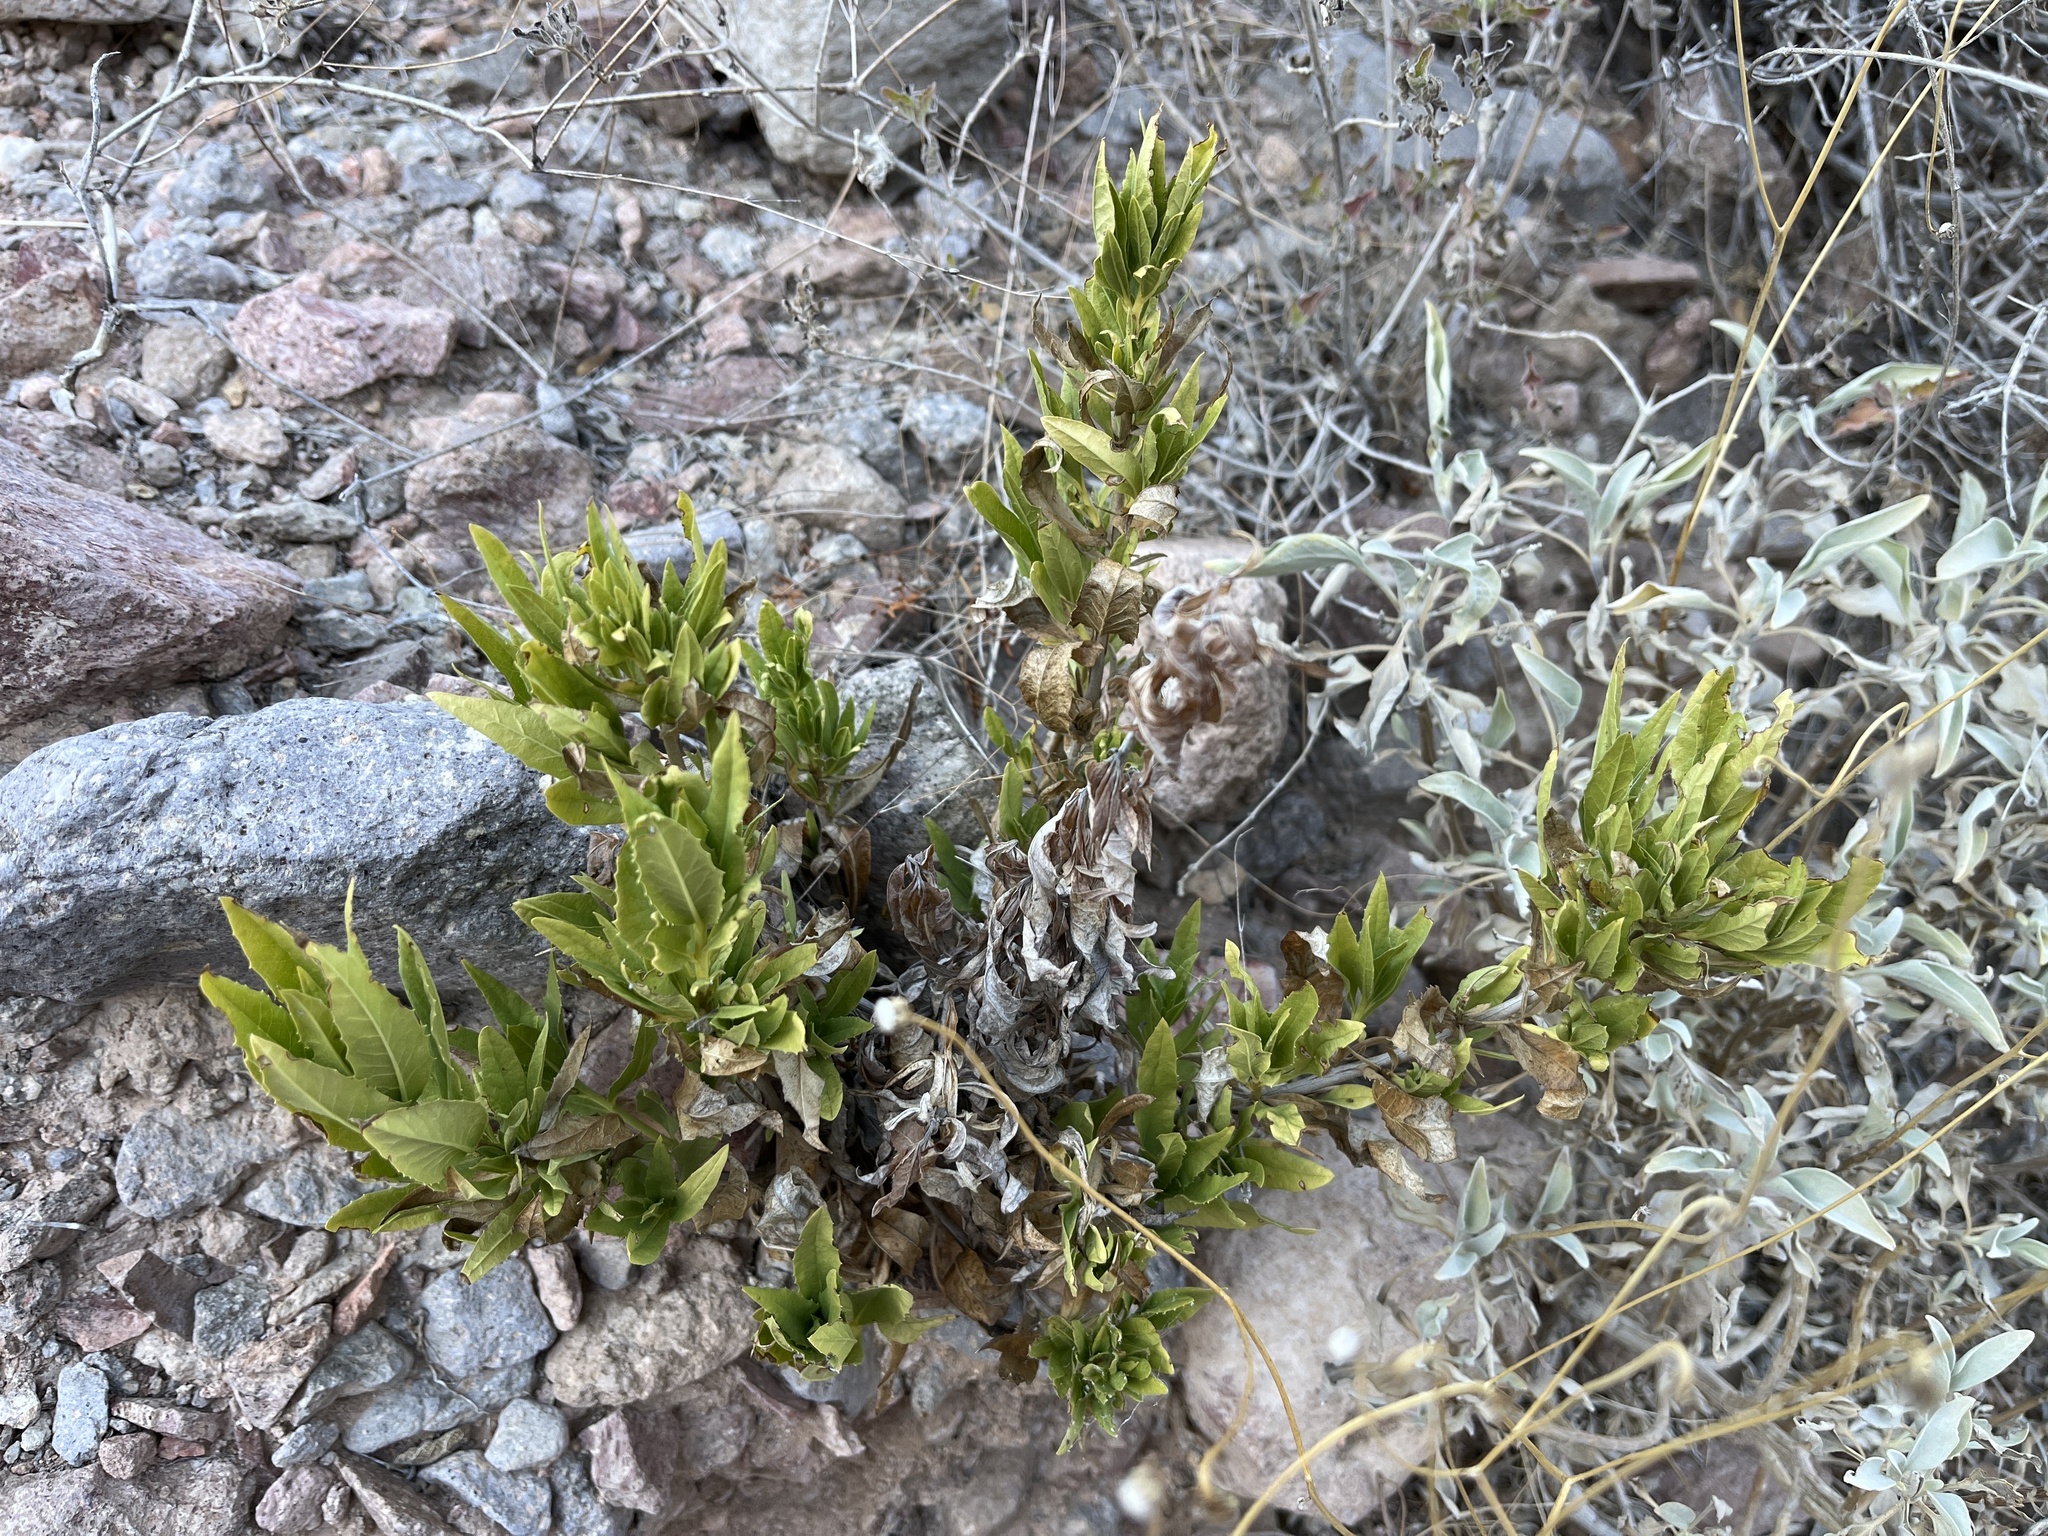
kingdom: Plantae
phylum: Tracheophyta
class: Magnoliopsida
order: Asterales
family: Asteraceae
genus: Trixis
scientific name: Trixis californica
